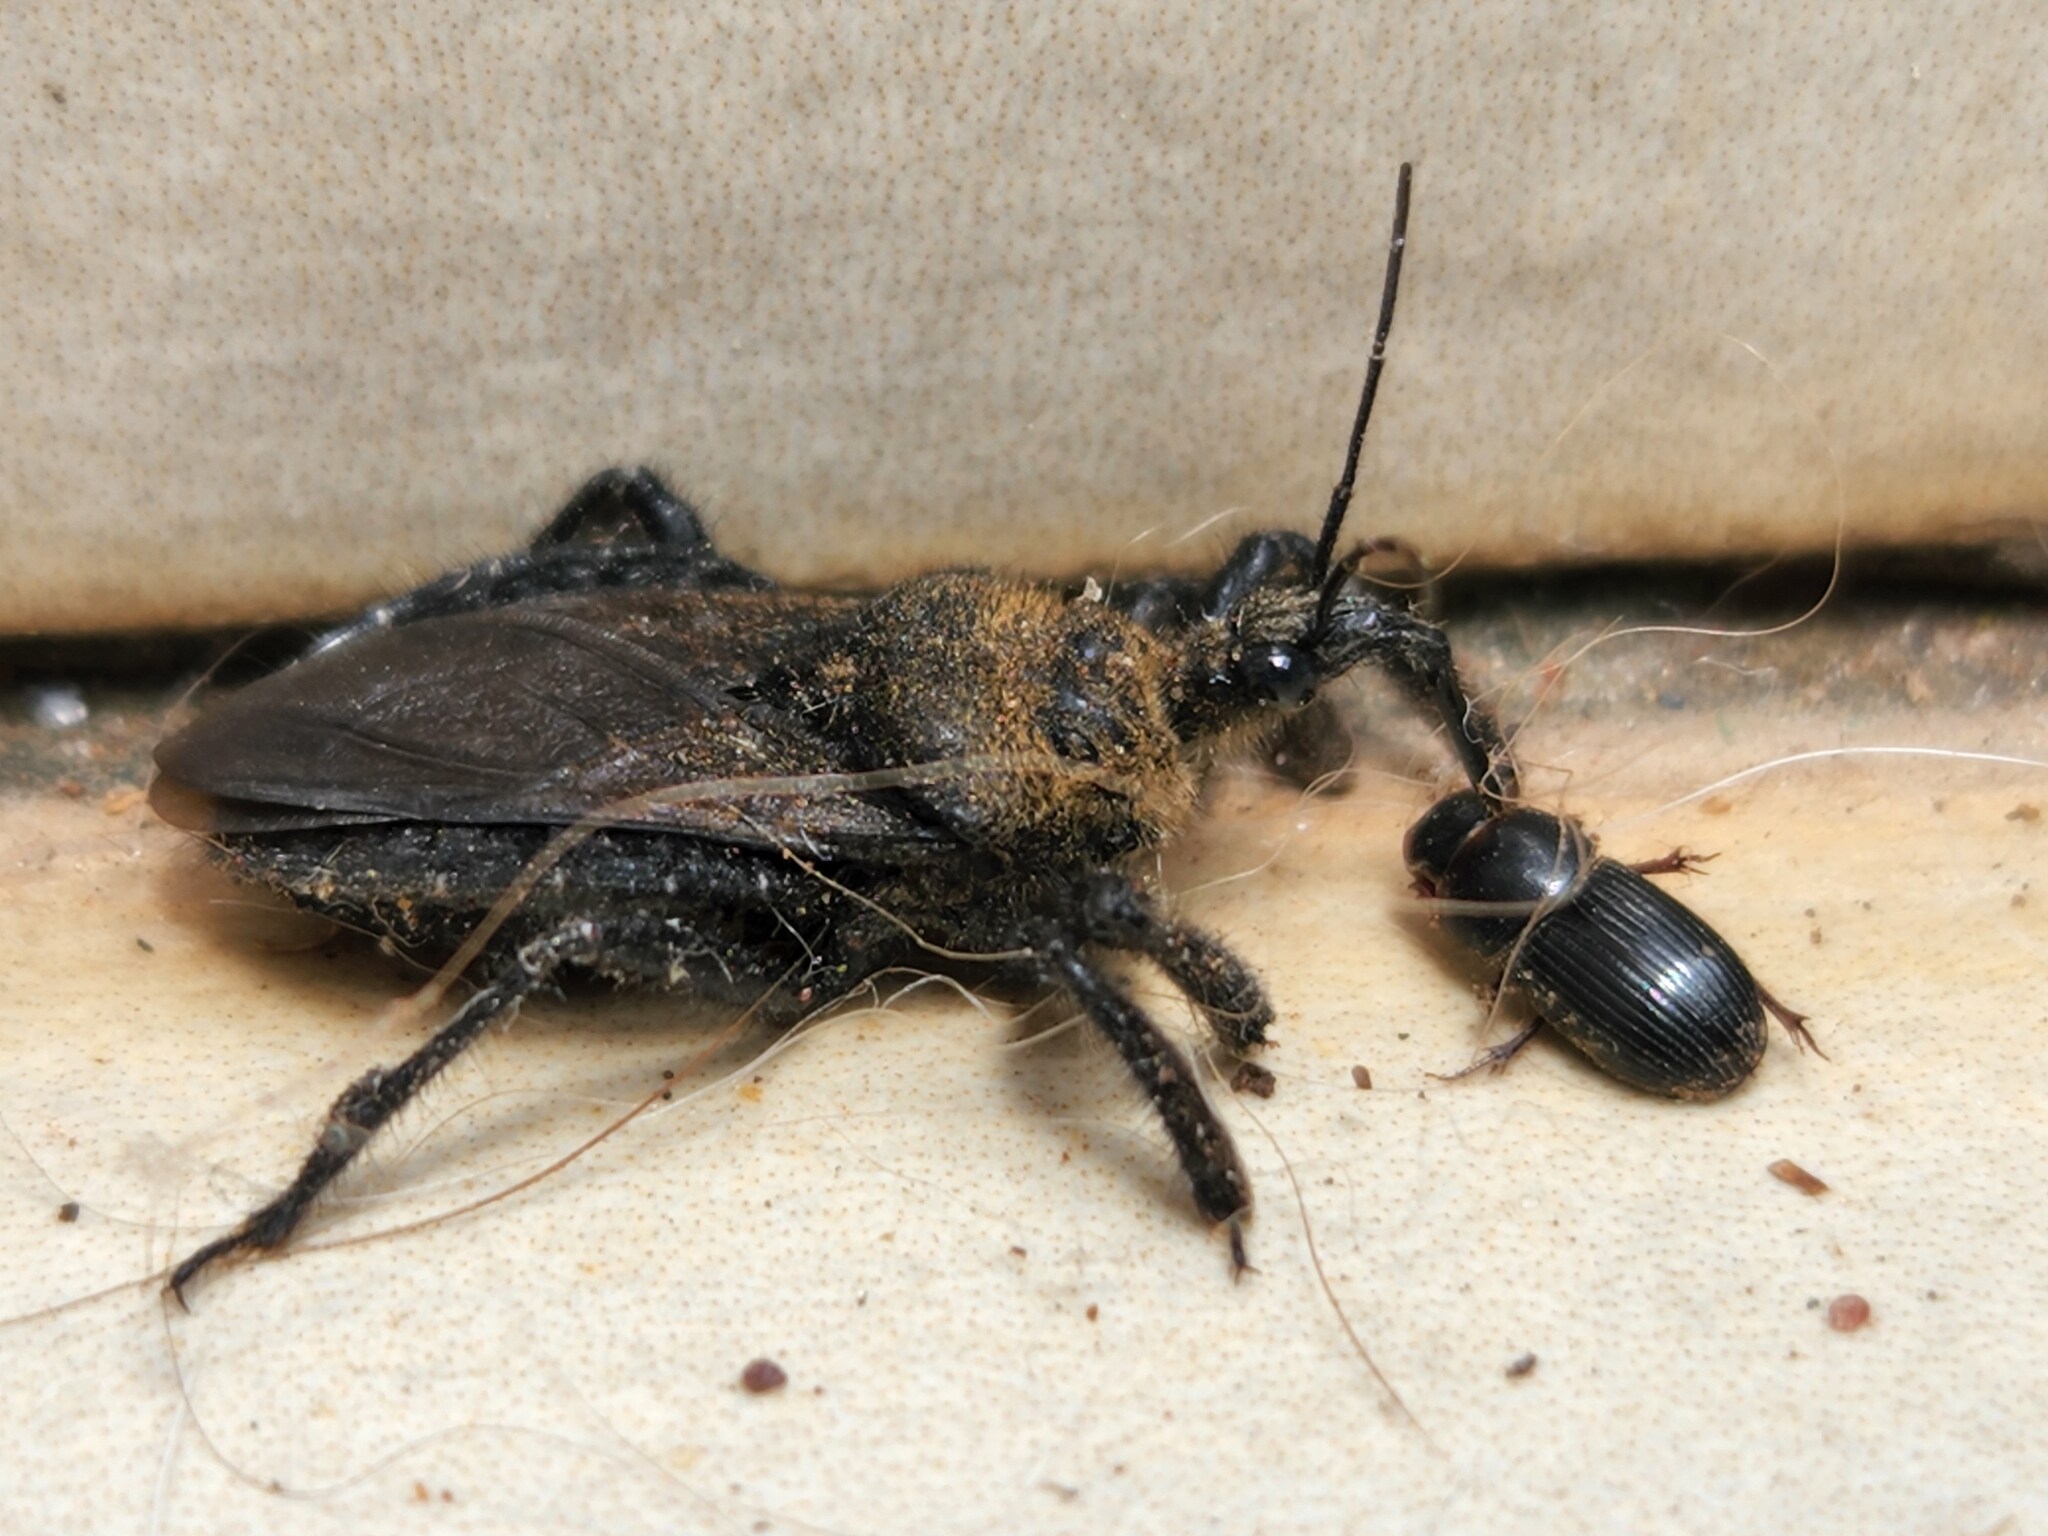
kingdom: Animalia
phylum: Arthropoda
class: Insecta
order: Hemiptera
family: Reduviidae
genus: Apiomerus
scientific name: Apiomerus lanipes
